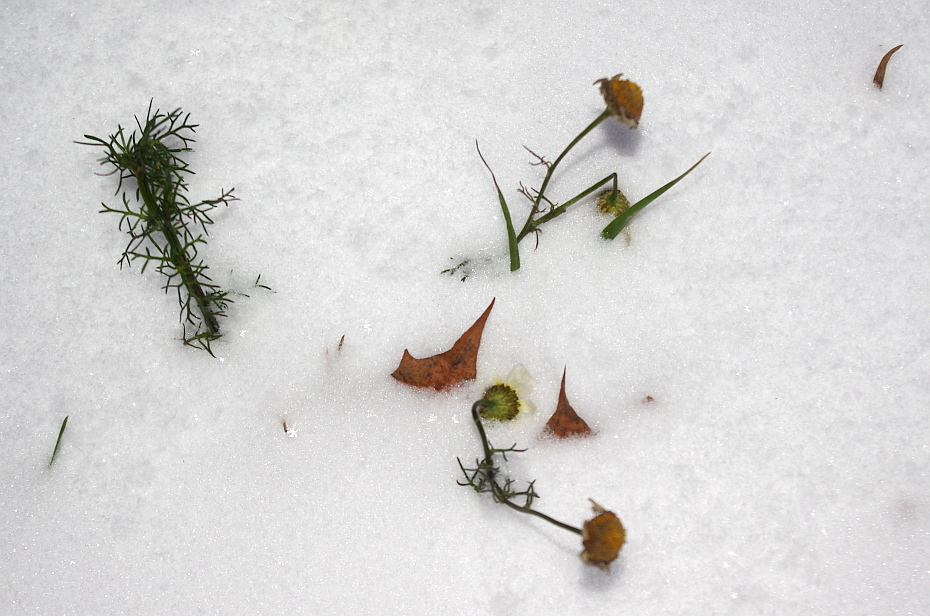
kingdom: Plantae
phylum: Tracheophyta
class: Magnoliopsida
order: Asterales
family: Asteraceae
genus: Tripleurospermum
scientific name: Tripleurospermum inodorum
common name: Scentless mayweed
